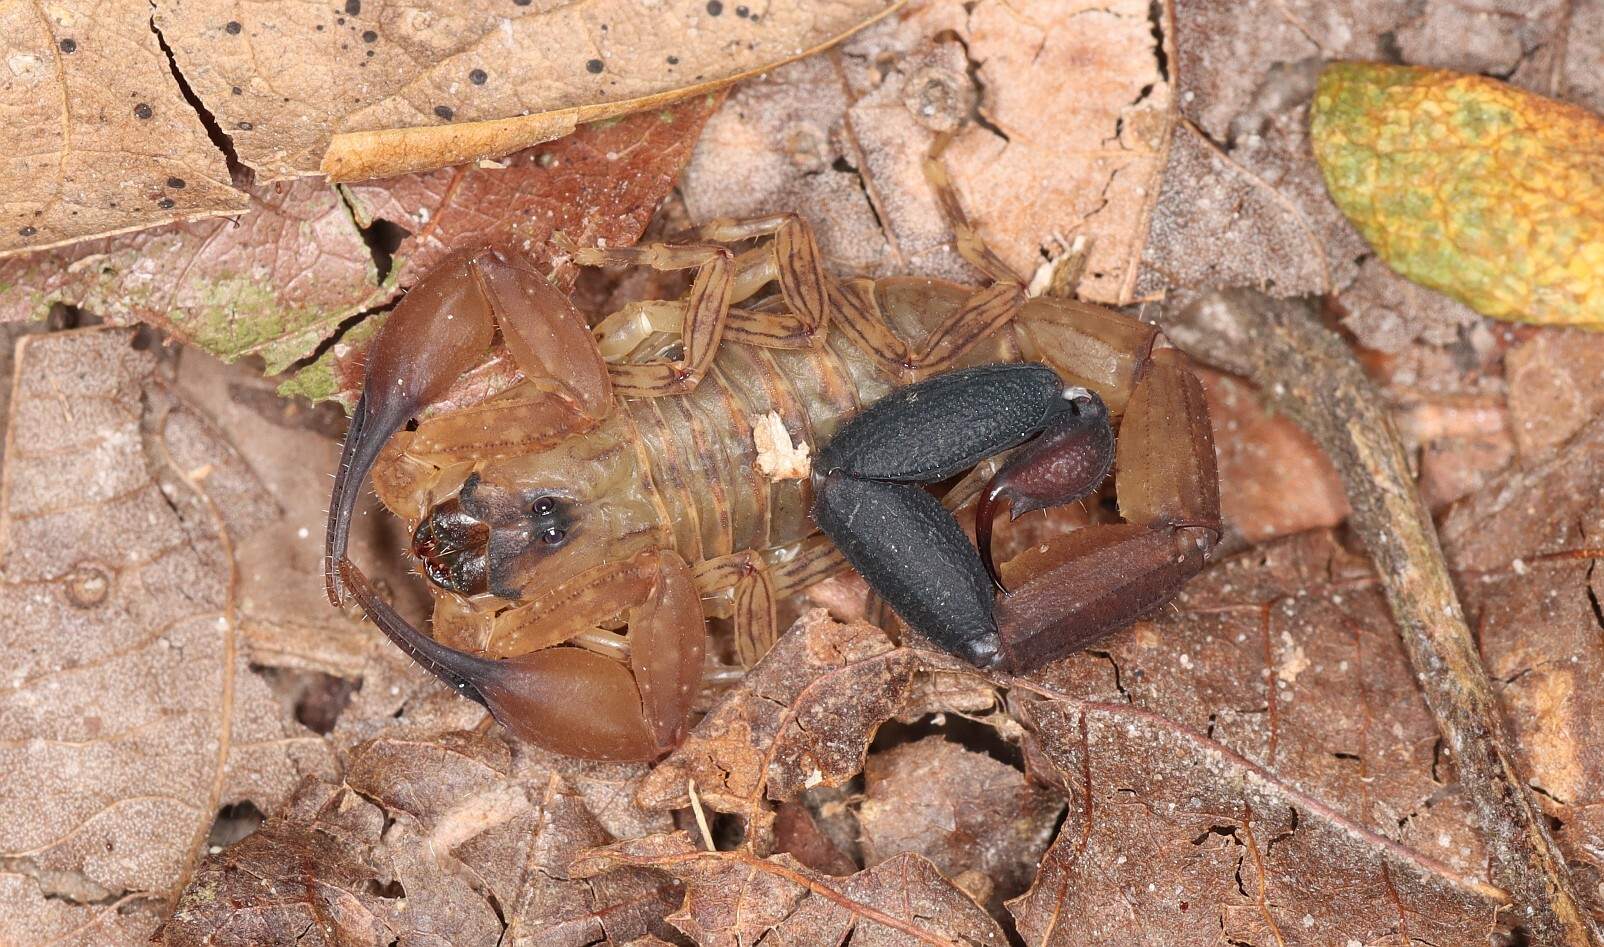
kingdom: Animalia
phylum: Arthropoda
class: Arachnida
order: Scorpiones
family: Buthidae
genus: Tityus
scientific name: Tityus dillerorum
